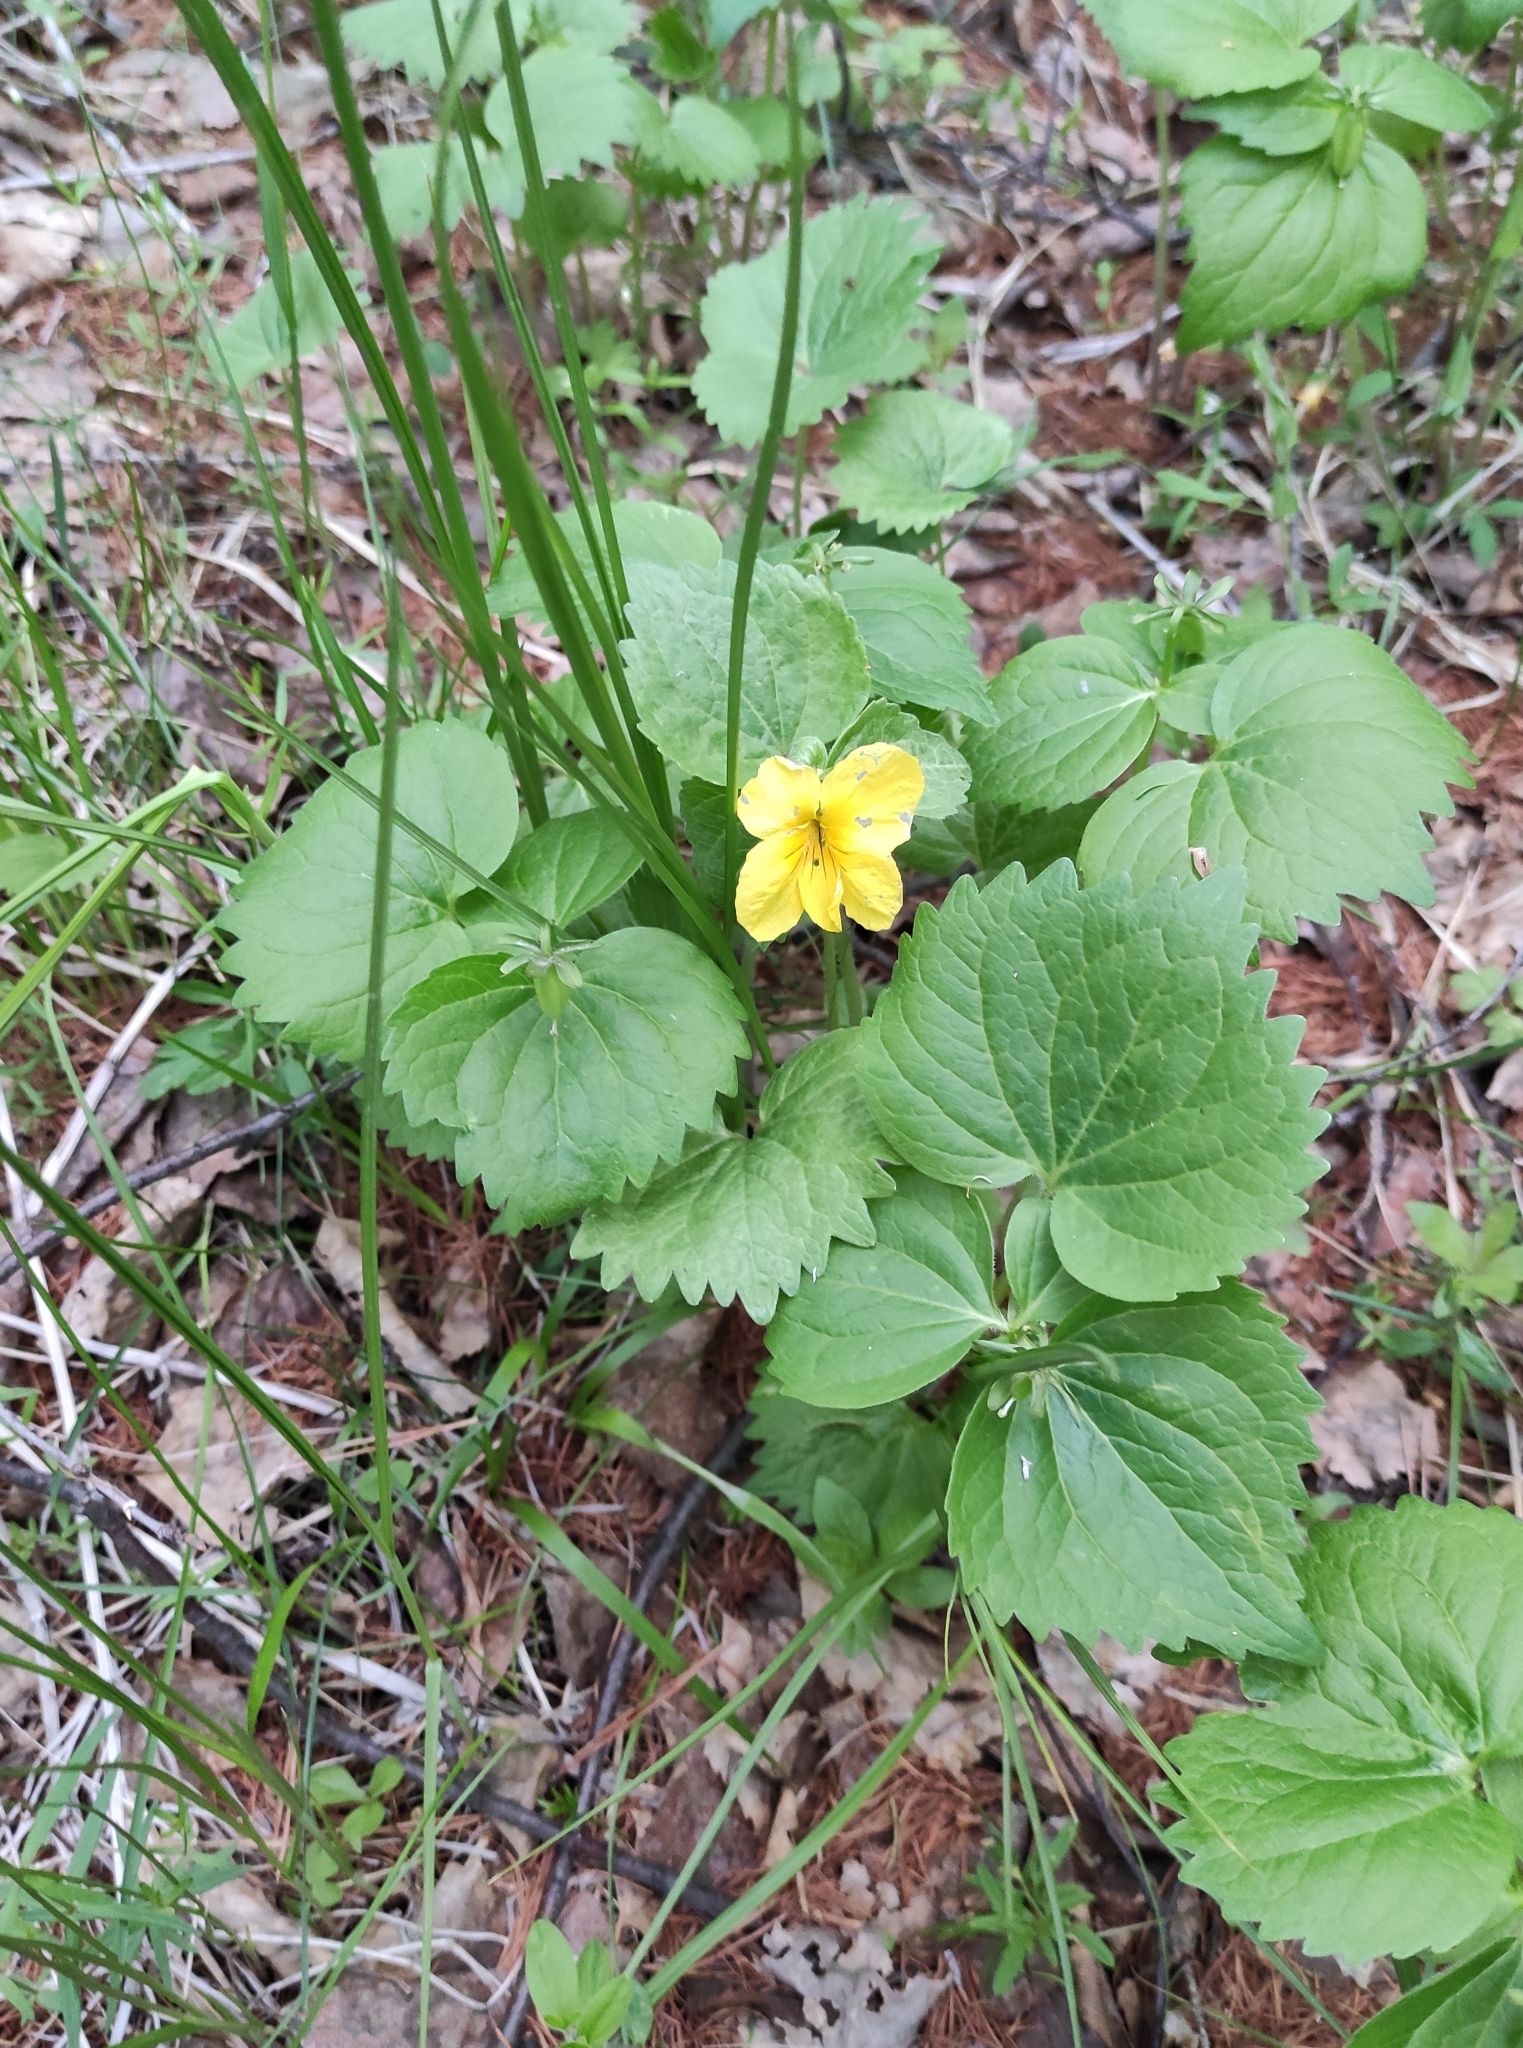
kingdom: Plantae
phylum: Tracheophyta
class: Magnoliopsida
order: Malpighiales
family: Violaceae
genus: Viola
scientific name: Viola uniflora
